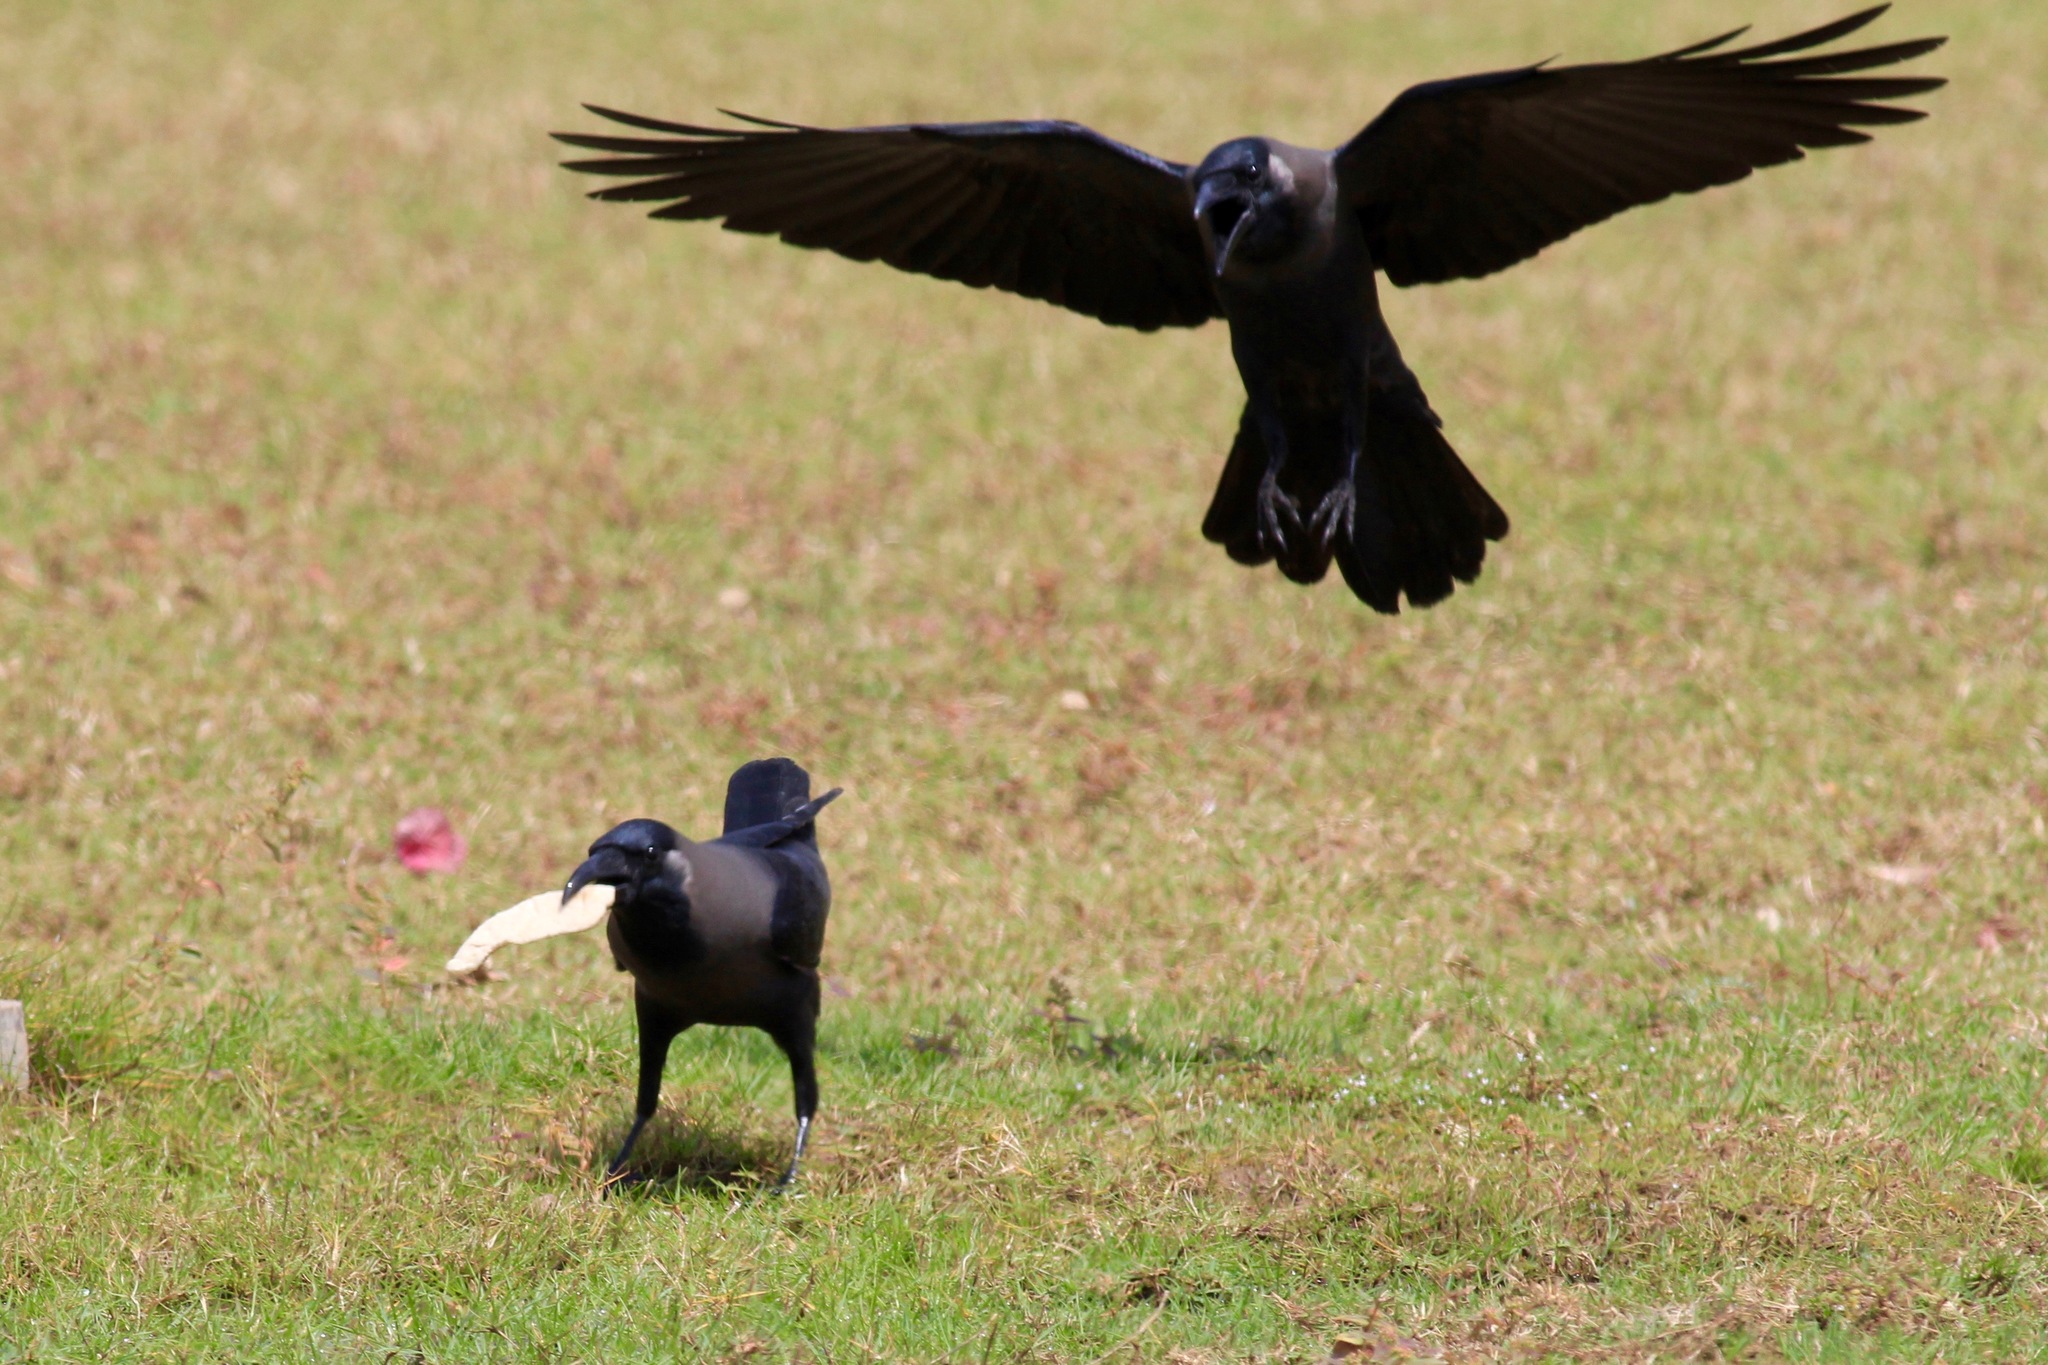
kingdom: Animalia
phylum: Chordata
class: Aves
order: Passeriformes
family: Corvidae
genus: Corvus
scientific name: Corvus splendens
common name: House crow
